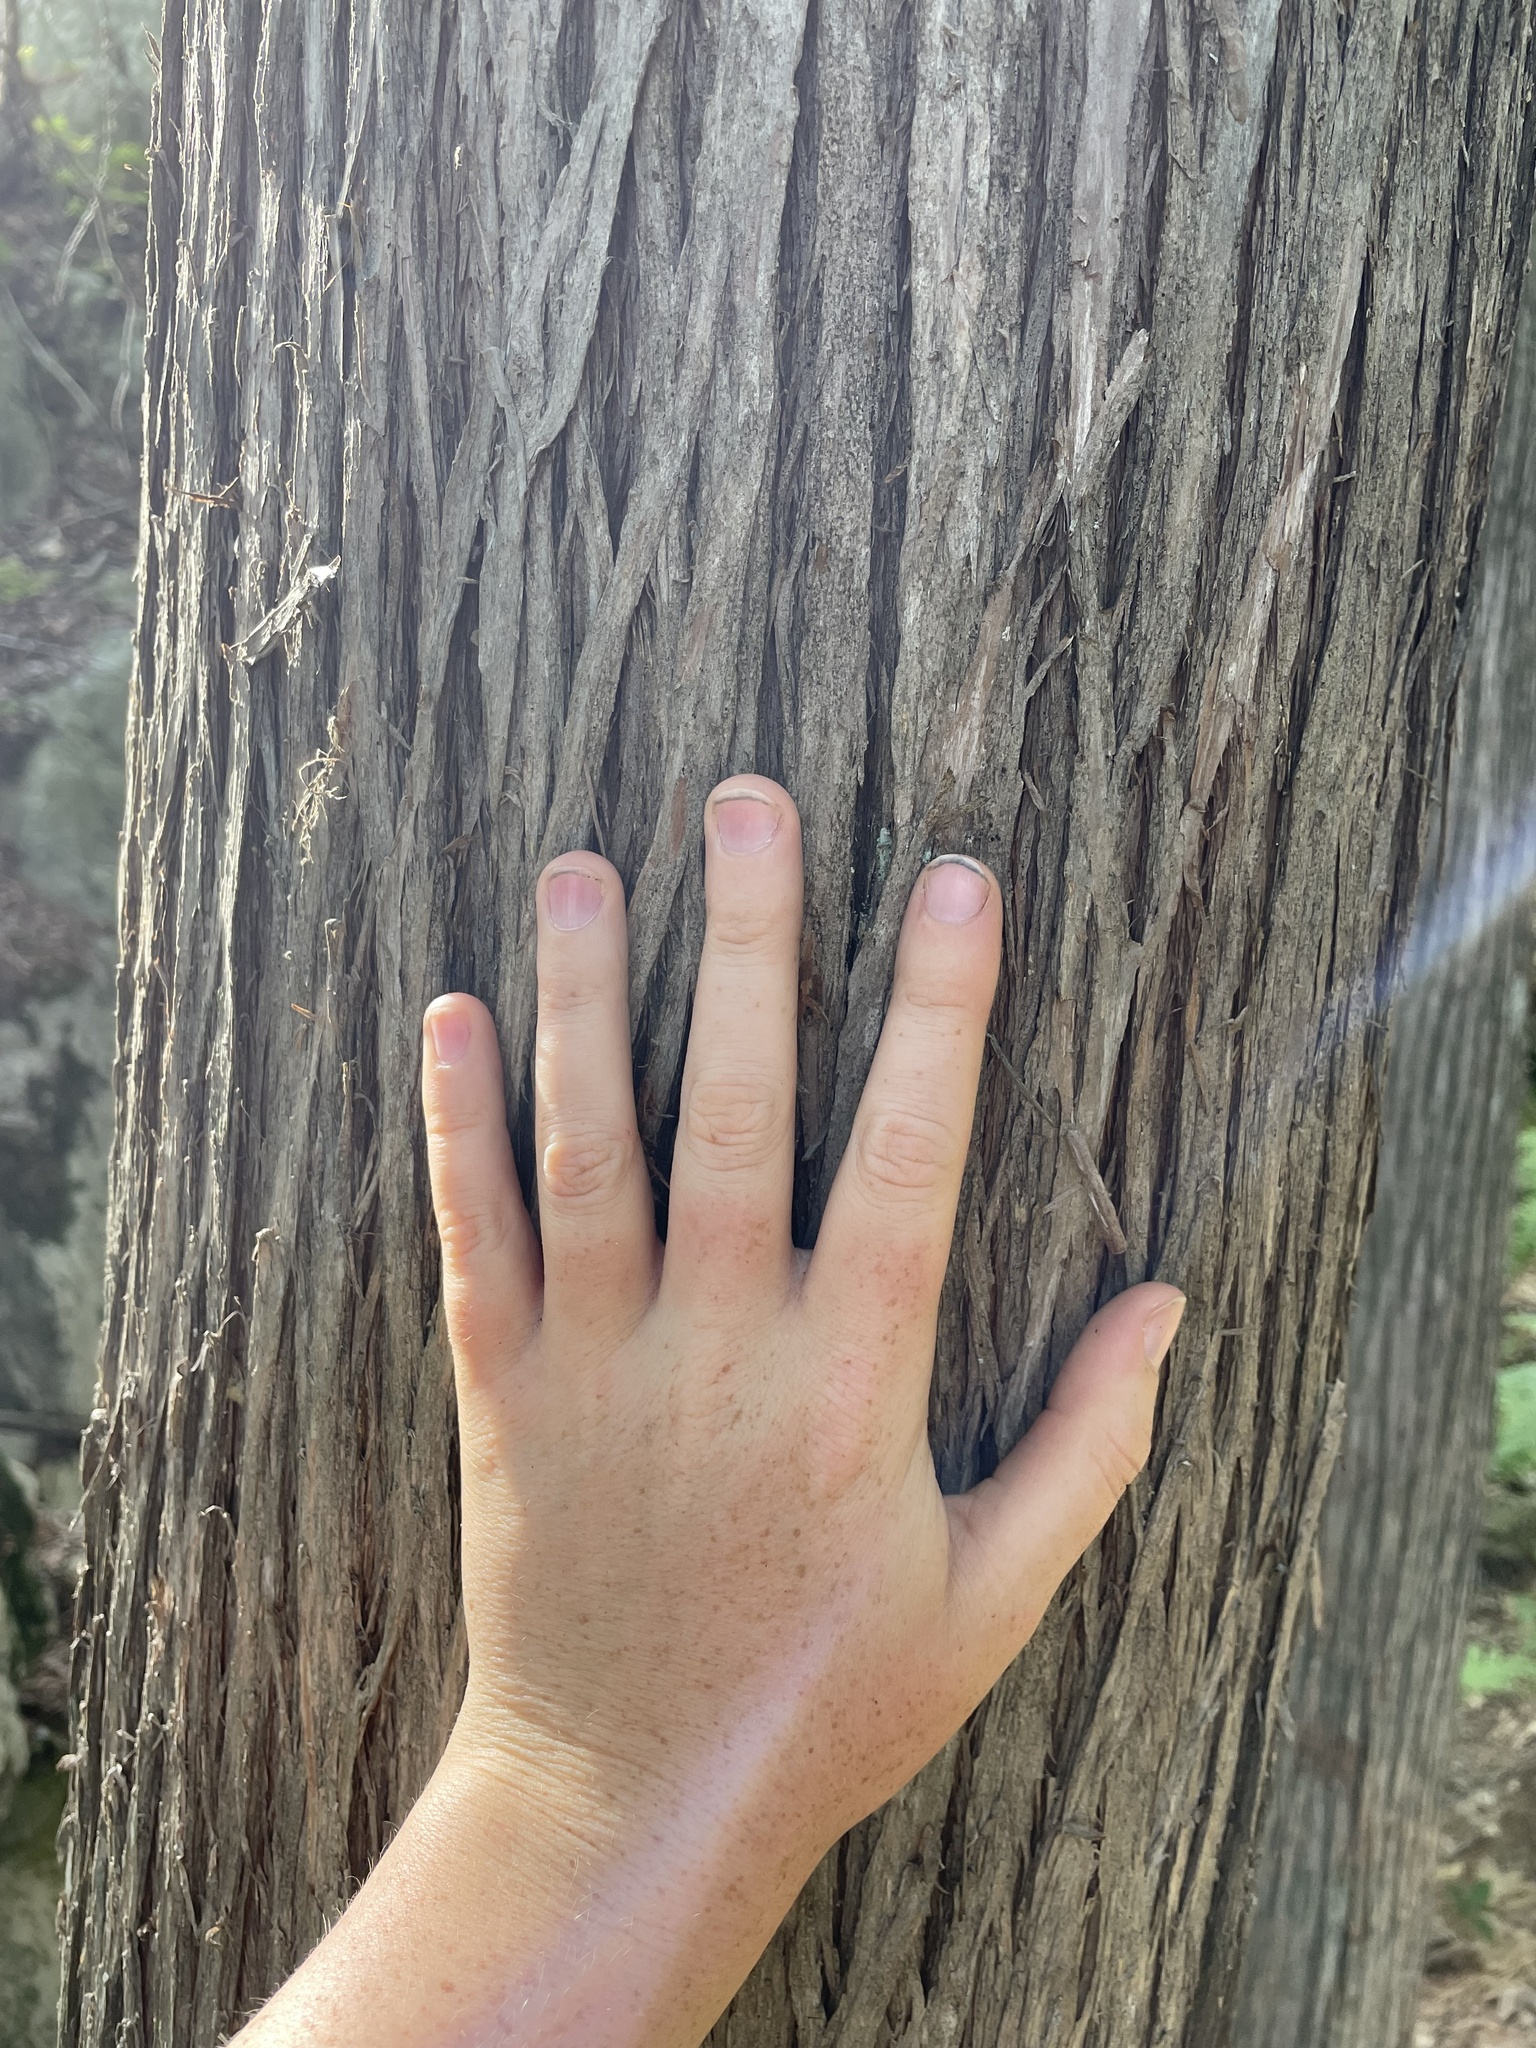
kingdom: Plantae
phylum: Tracheophyta
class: Pinopsida
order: Pinales
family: Cupressaceae
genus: Thuja
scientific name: Thuja occidentalis
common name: Northern white-cedar
